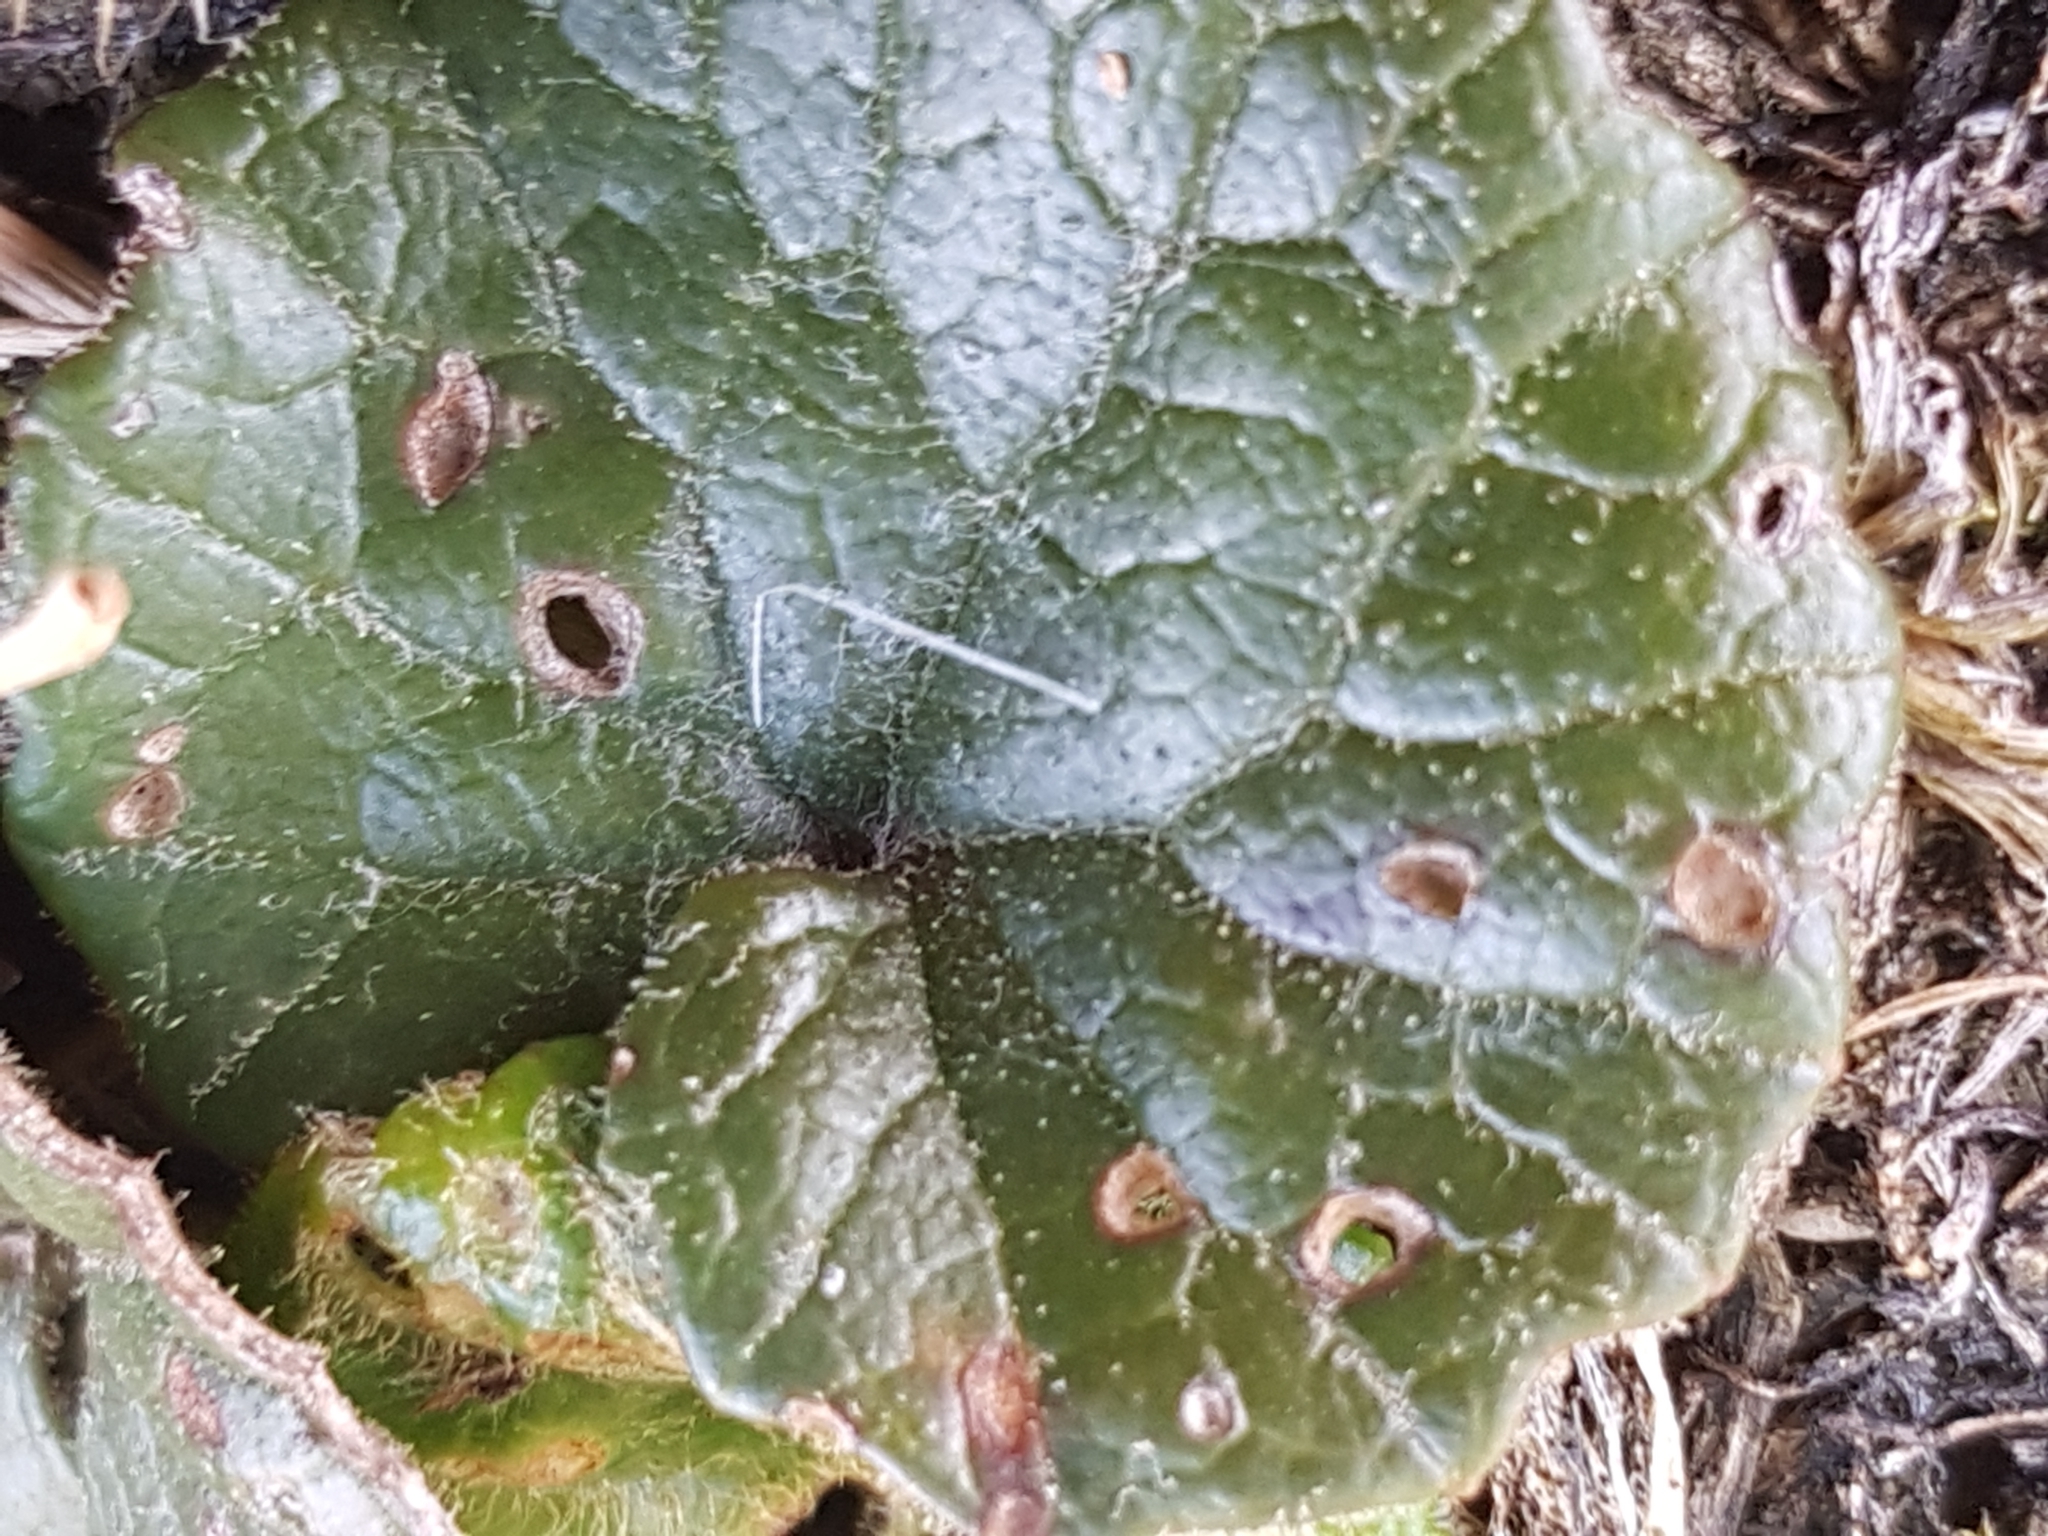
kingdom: Plantae
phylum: Tracheophyta
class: Magnoliopsida
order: Asterales
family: Asteraceae
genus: Homogyne
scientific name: Homogyne alpina
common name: Purple colt's-foot
